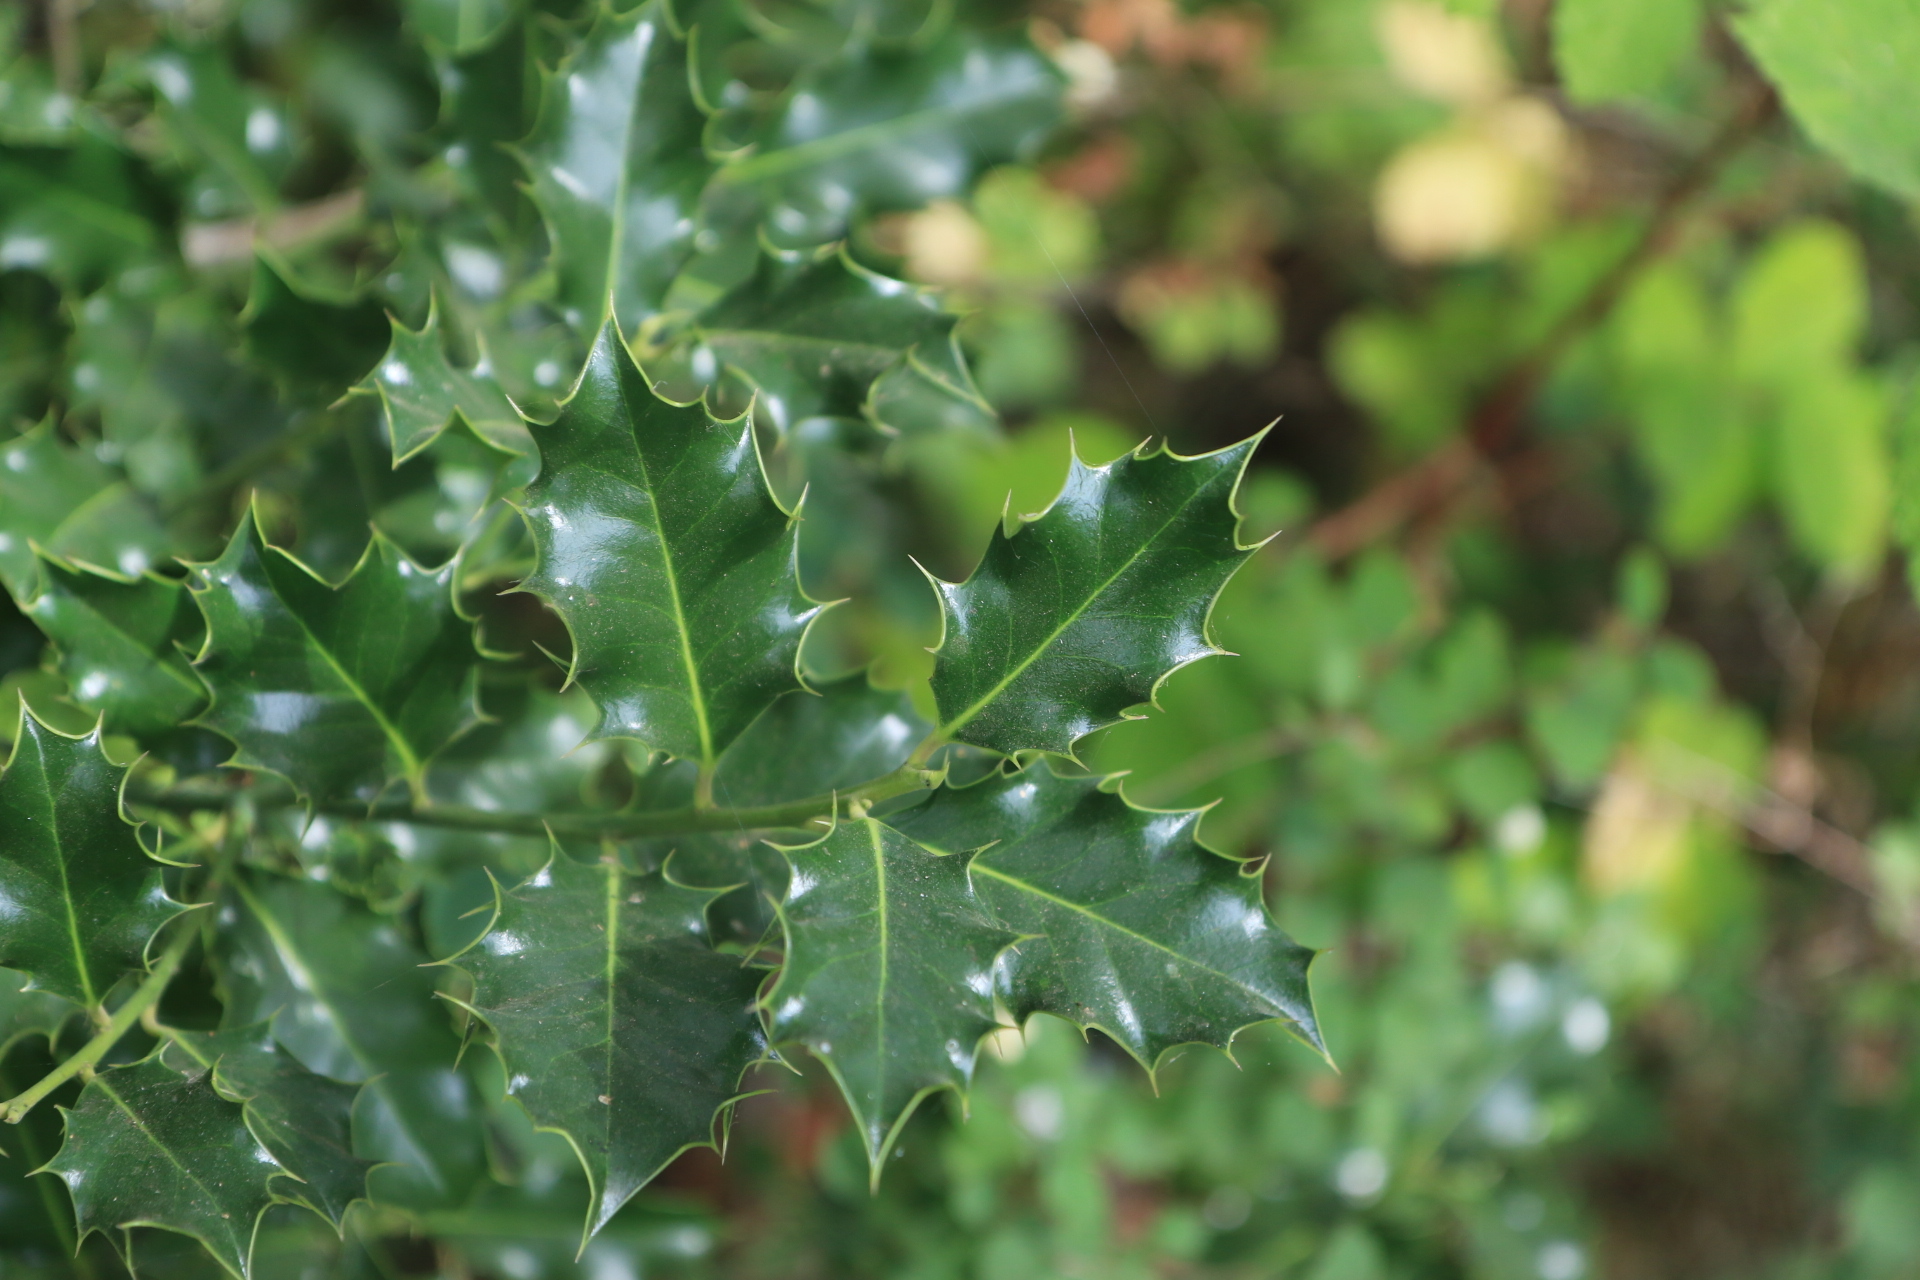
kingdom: Plantae
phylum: Tracheophyta
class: Magnoliopsida
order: Aquifoliales
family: Aquifoliaceae
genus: Ilex
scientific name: Ilex aquifolium
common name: English holly
